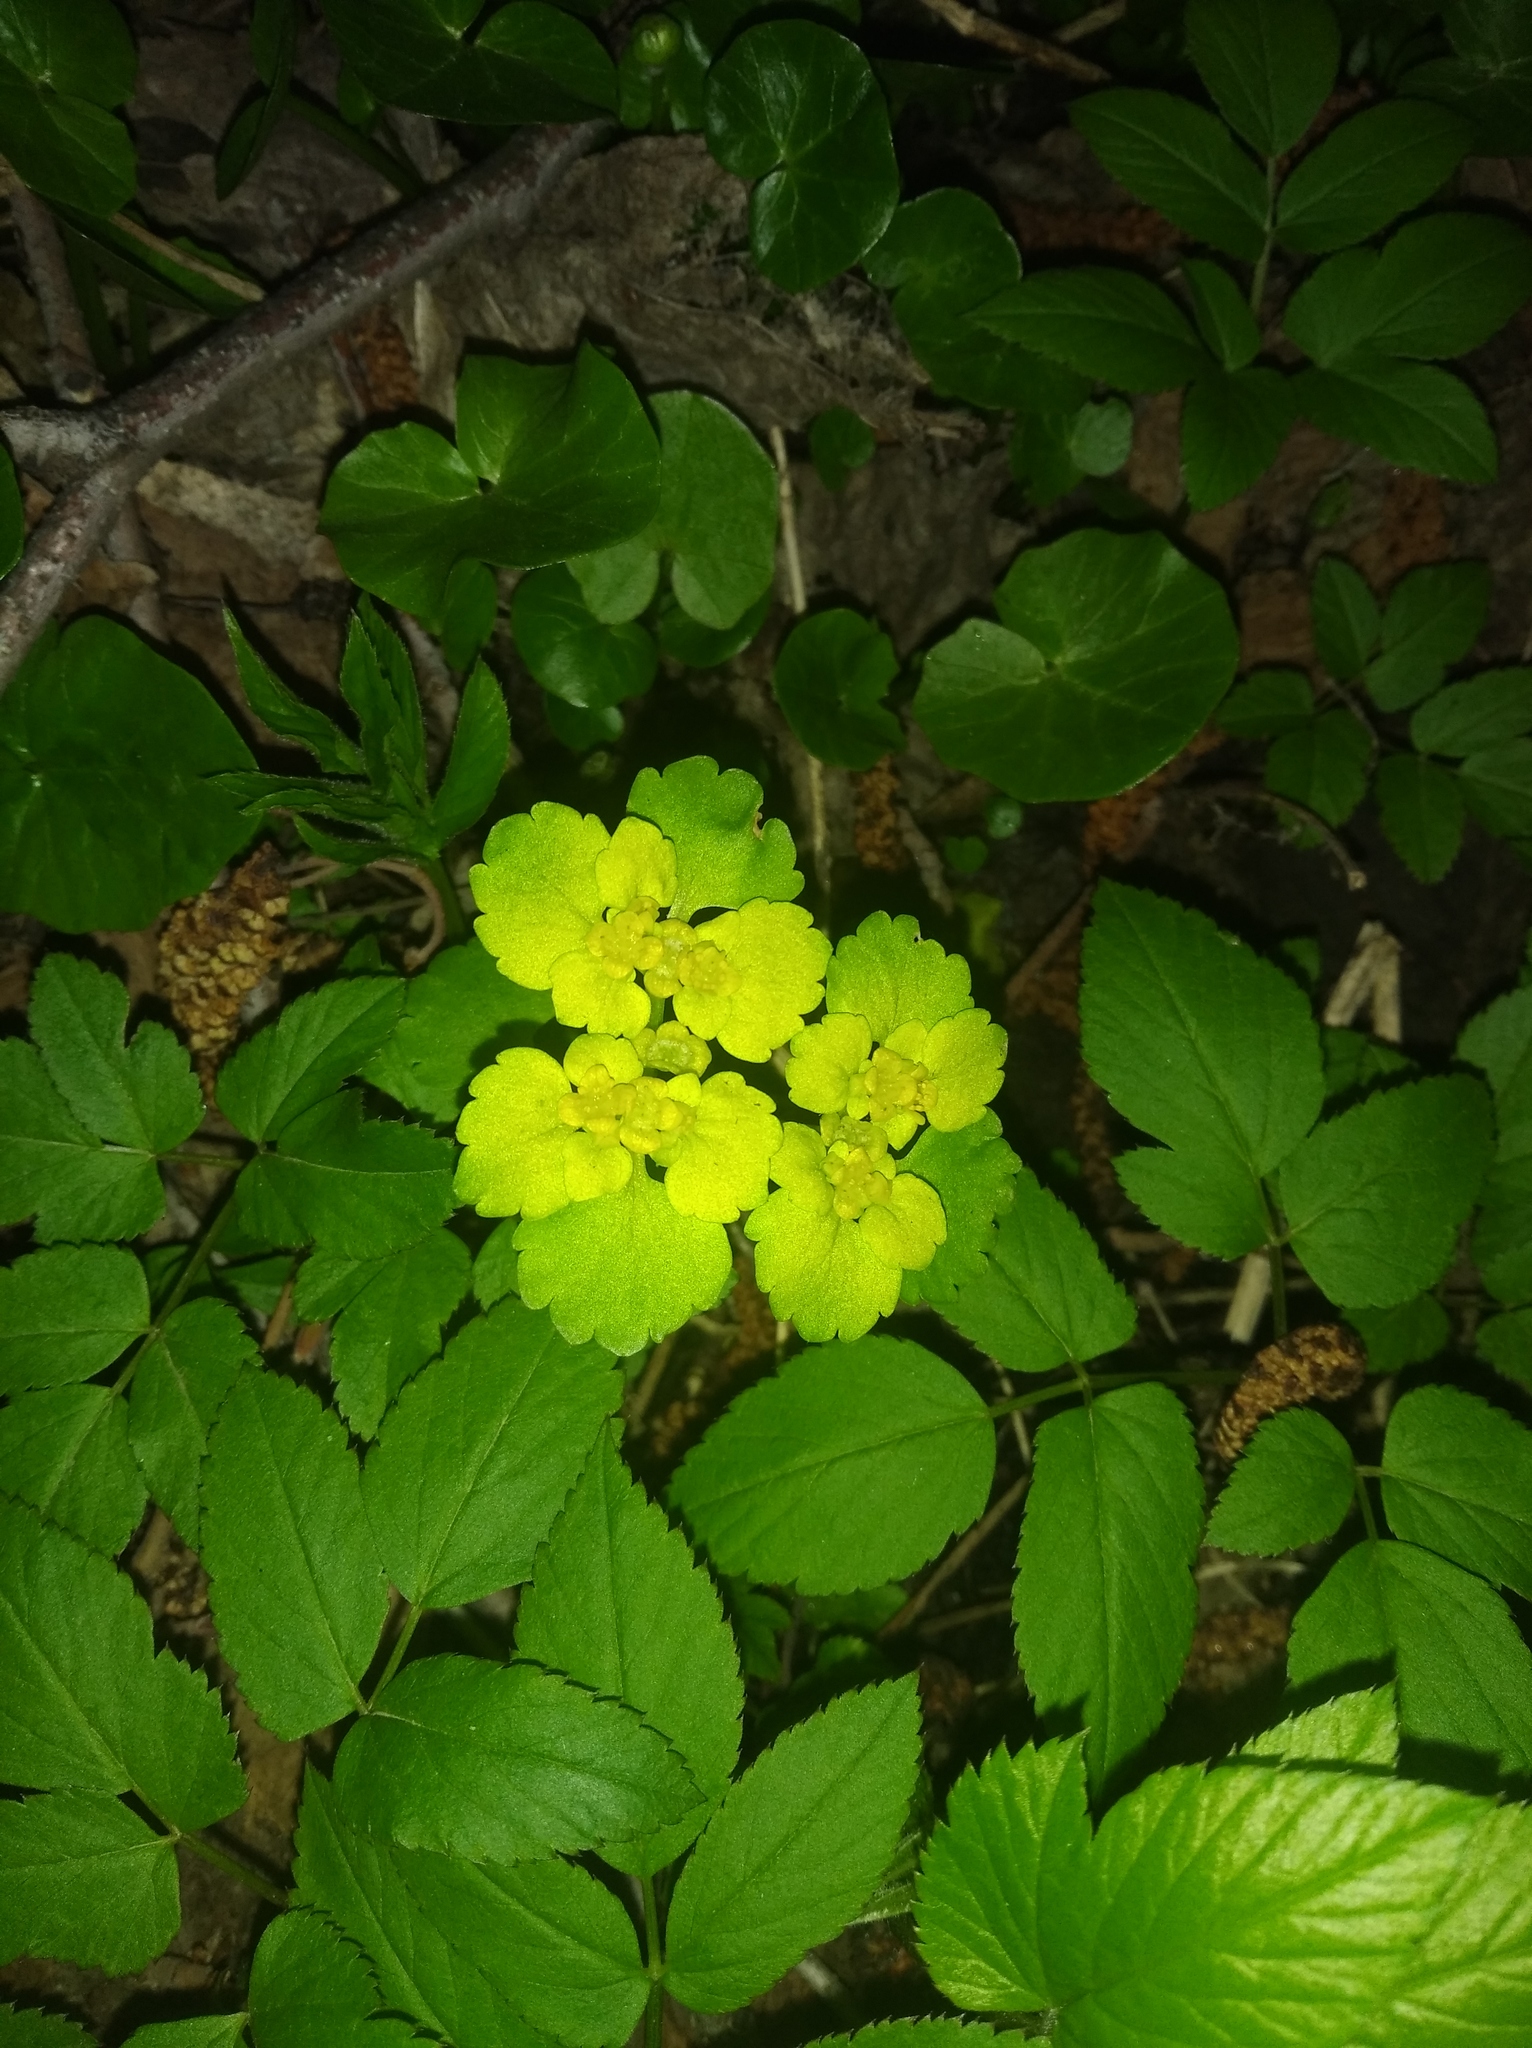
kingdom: Plantae
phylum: Tracheophyta
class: Magnoliopsida
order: Saxifragales
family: Saxifragaceae
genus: Chrysosplenium
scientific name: Chrysosplenium alternifolium
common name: Alternate-leaved golden-saxifrage
